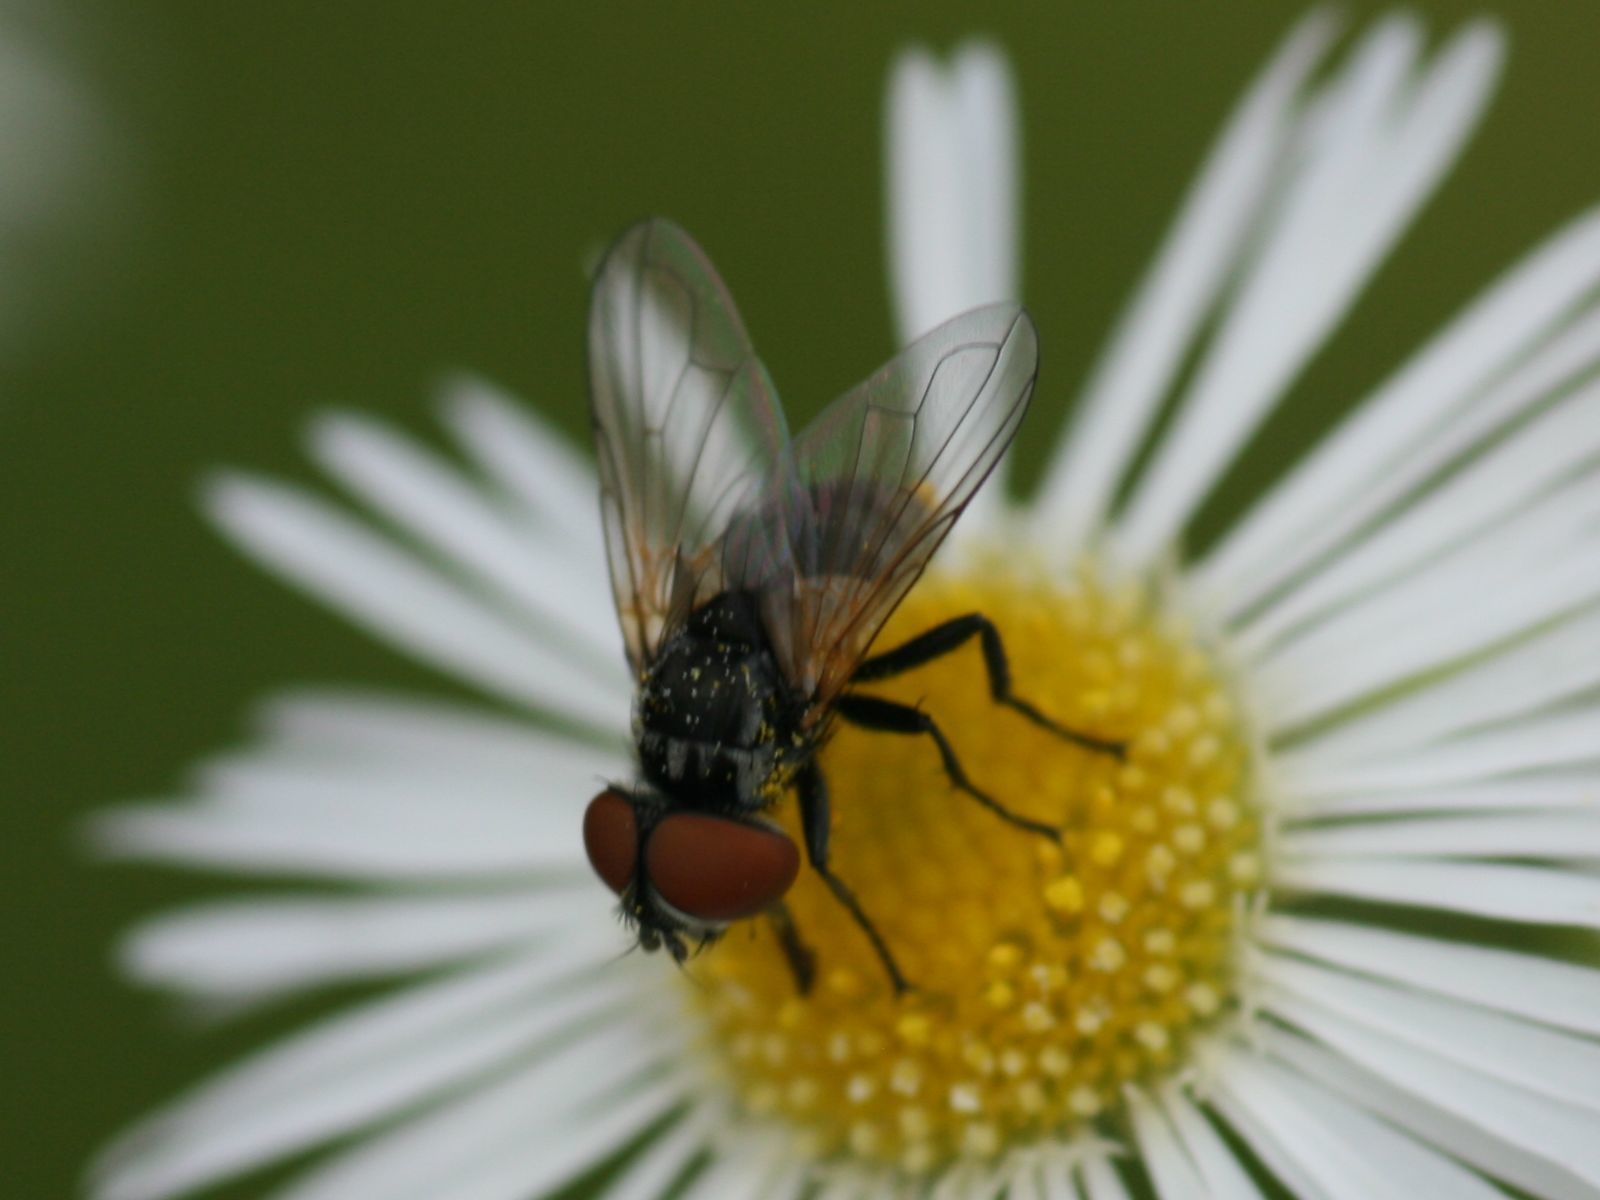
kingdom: Animalia
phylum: Arthropoda
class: Insecta
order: Diptera
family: Tachinidae
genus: Phasia
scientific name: Phasia obesa
